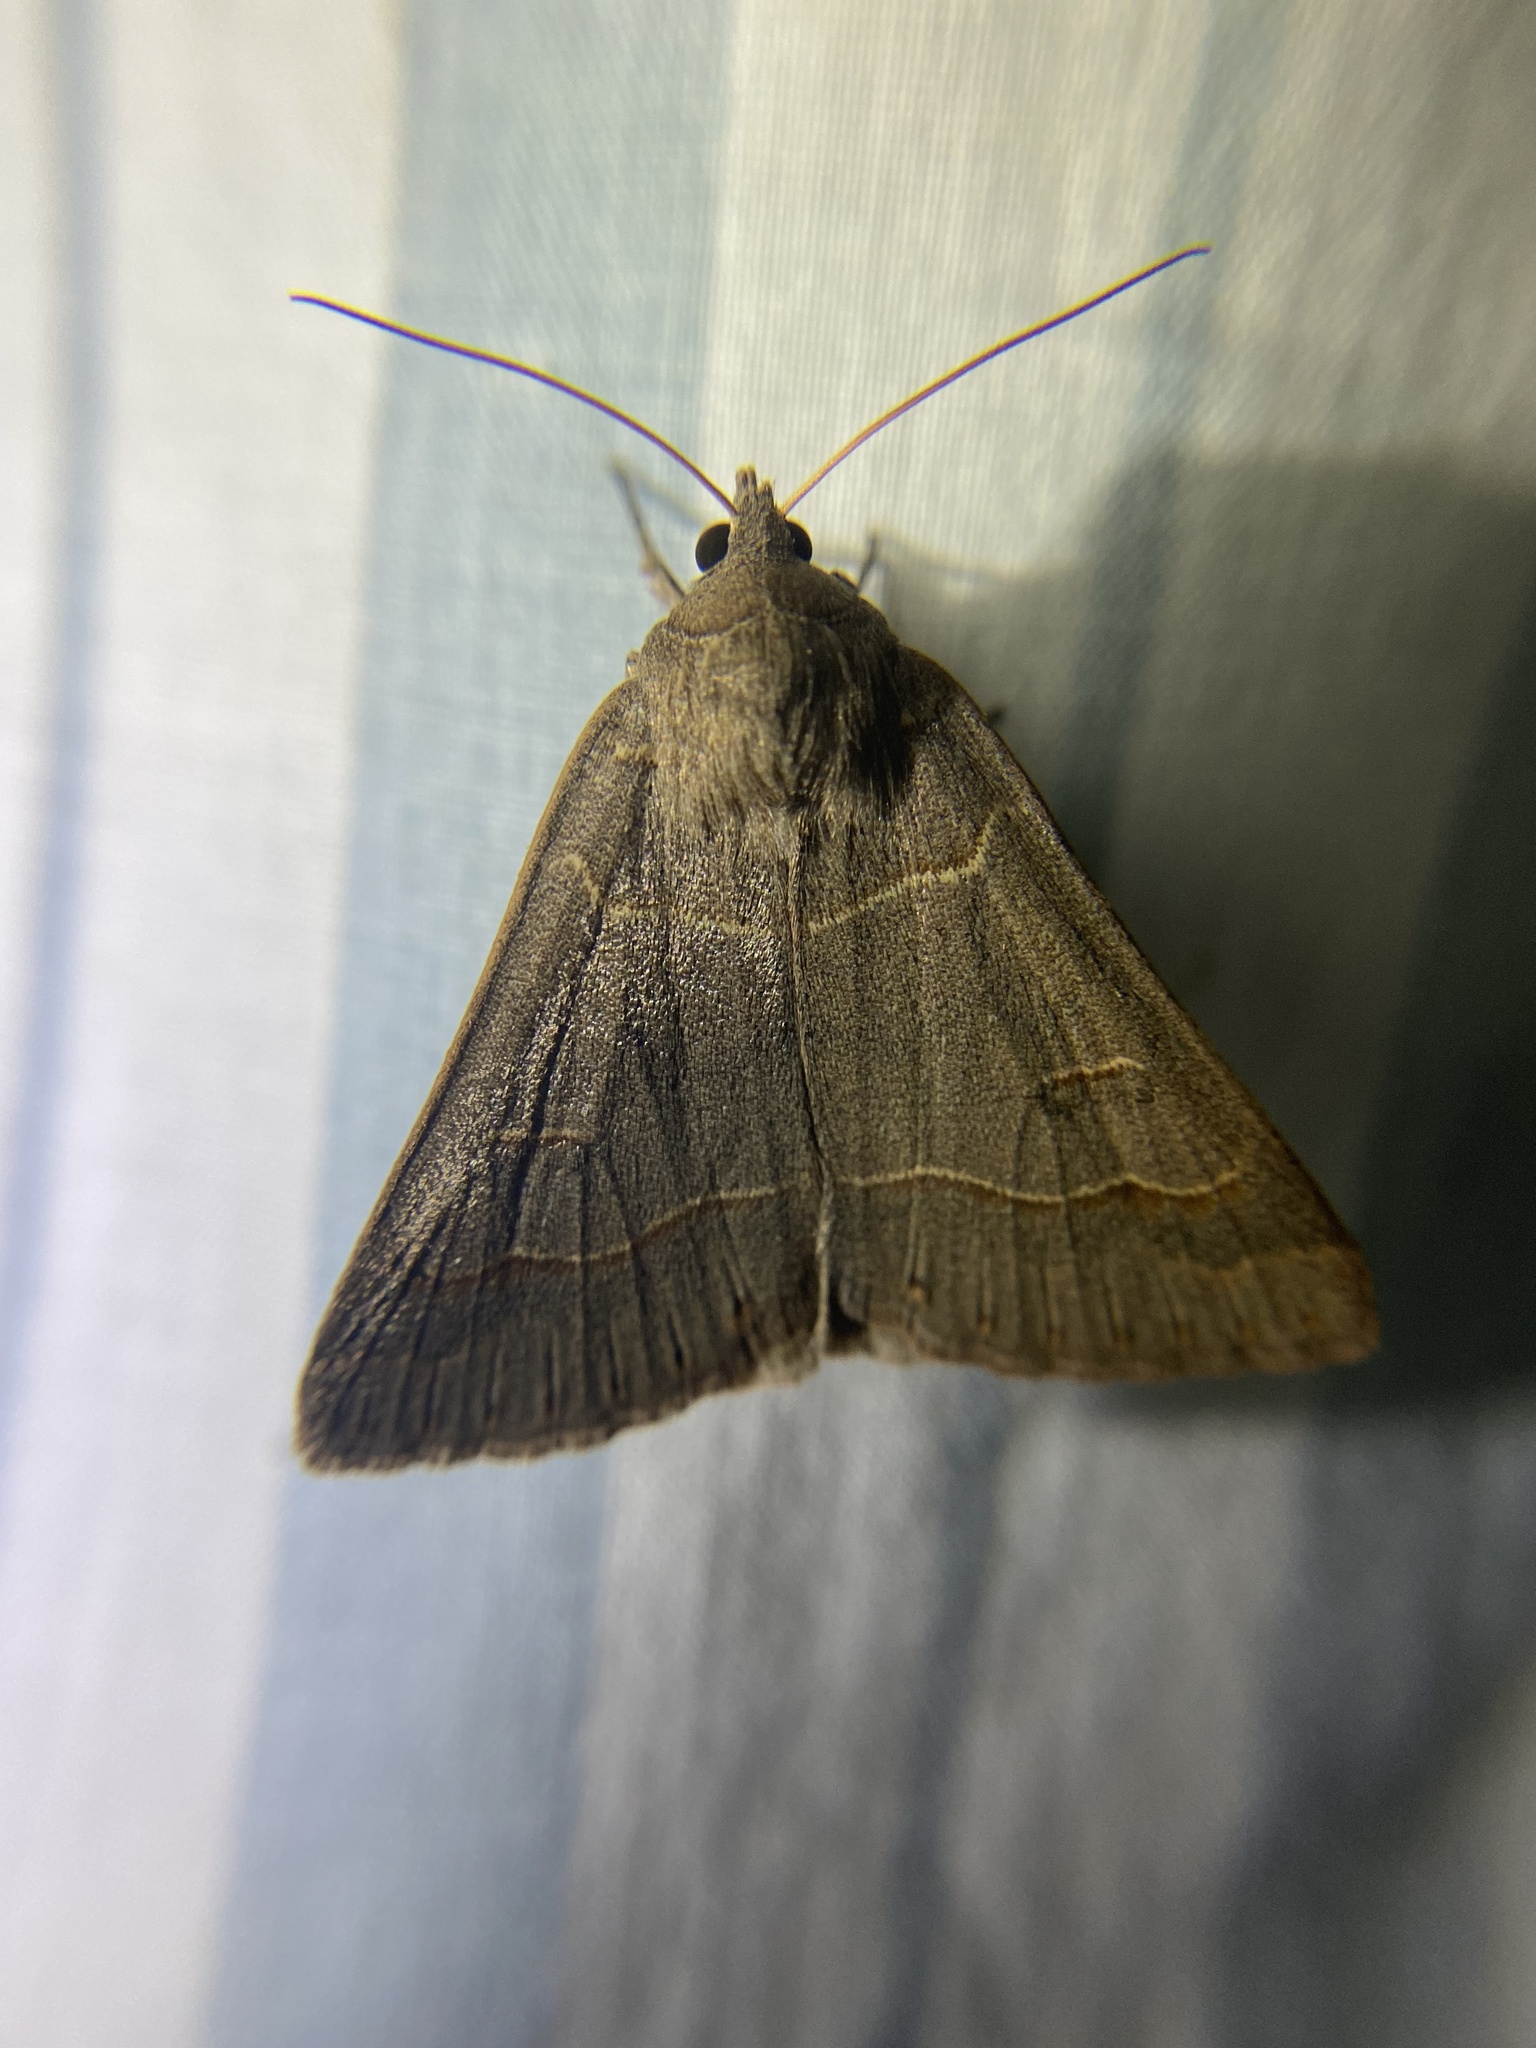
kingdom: Animalia
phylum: Arthropoda
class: Insecta
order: Lepidoptera
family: Erebidae
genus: Phoberia
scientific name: Phoberia atomaris
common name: Common oak moth
